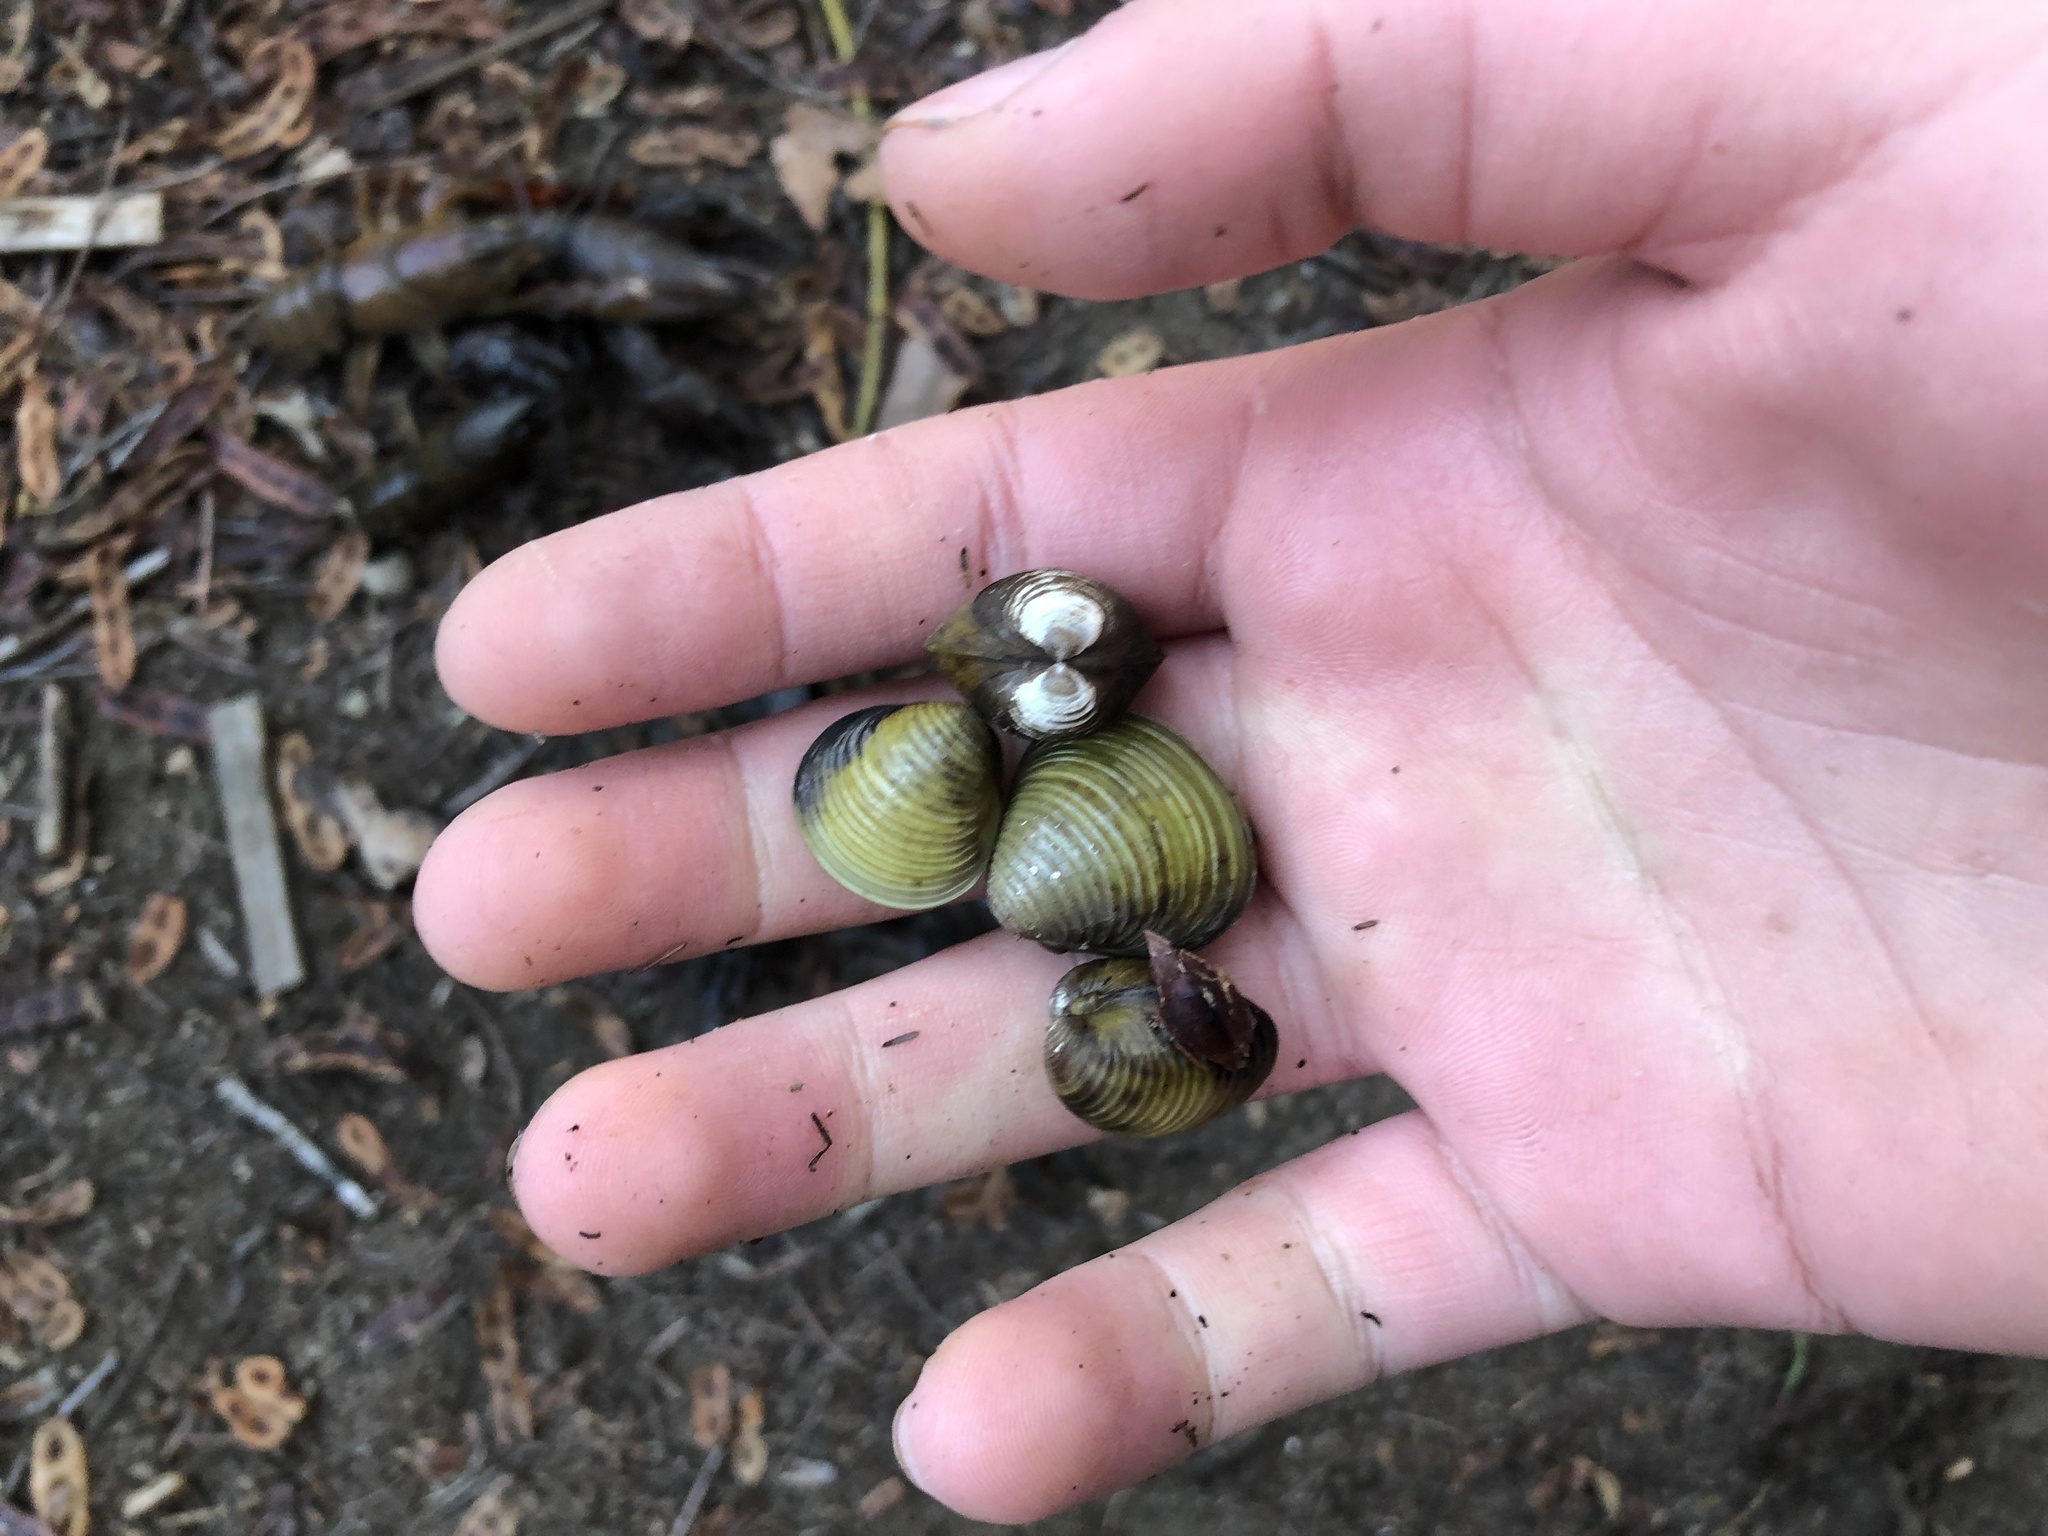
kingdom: Animalia
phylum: Mollusca
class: Bivalvia
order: Venerida
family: Cyrenidae
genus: Corbicula
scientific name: Corbicula fluminea
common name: Asian clam
